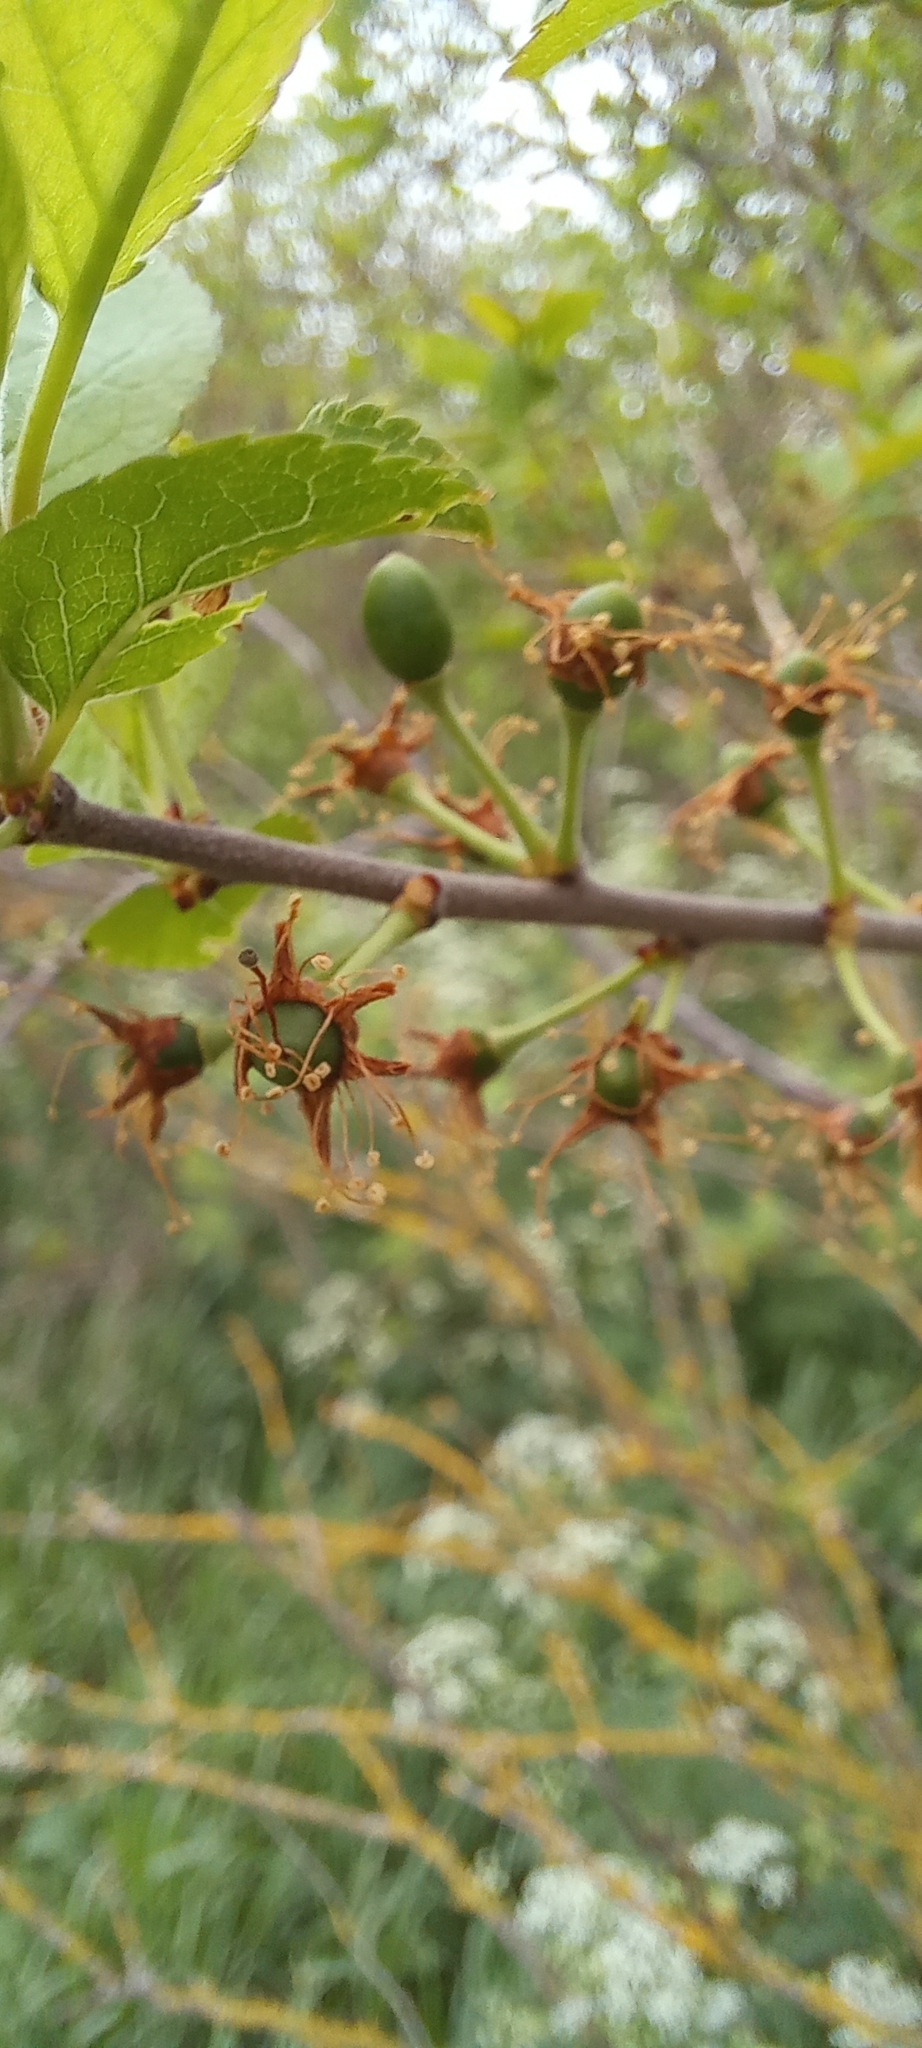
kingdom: Plantae
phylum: Tracheophyta
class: Magnoliopsida
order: Rosales
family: Rosaceae
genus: Prunus
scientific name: Prunus spinosa
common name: Blackthorn
